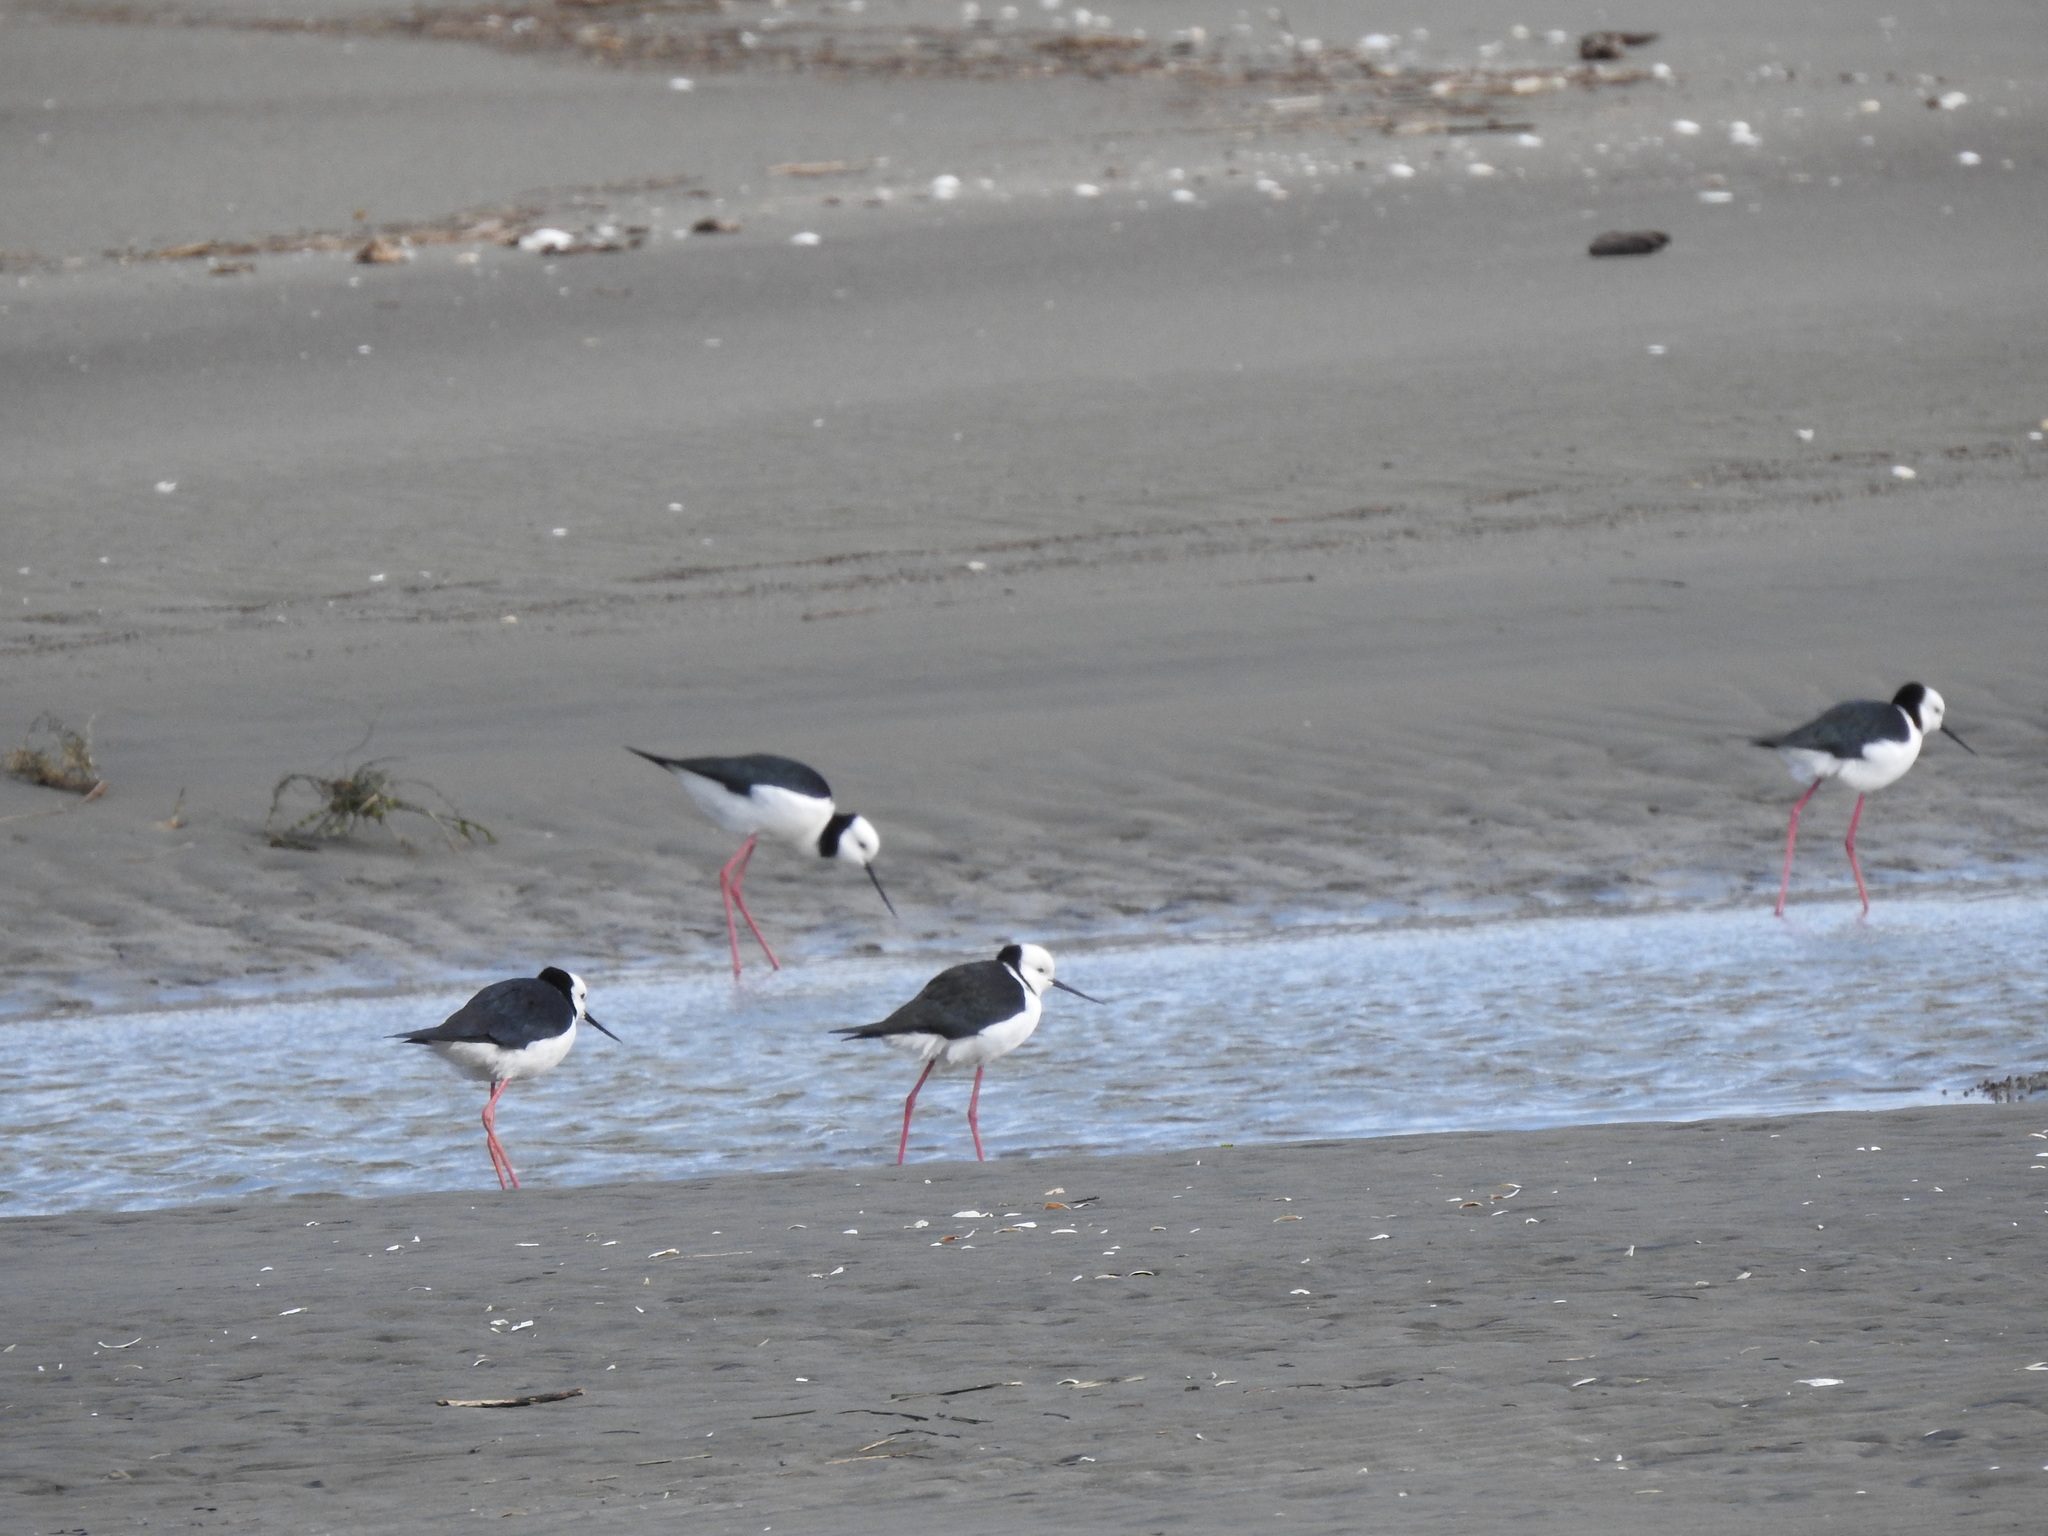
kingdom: Animalia
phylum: Chordata
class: Aves
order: Charadriiformes
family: Recurvirostridae
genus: Himantopus
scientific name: Himantopus leucocephalus
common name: White-headed stilt
